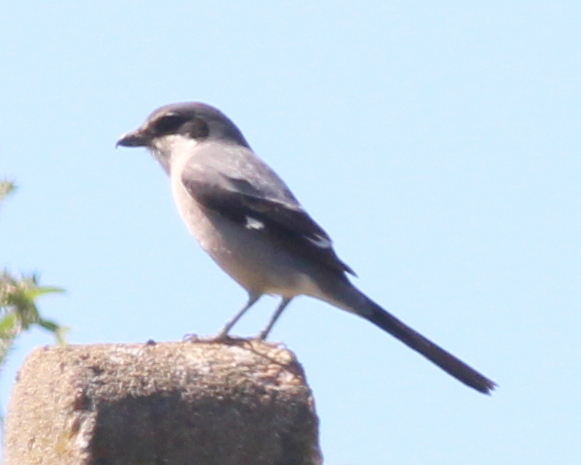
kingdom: Animalia
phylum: Chordata
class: Aves
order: Passeriformes
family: Laniidae
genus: Lanius
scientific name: Lanius meridionalis
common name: Iberian grey shrike
